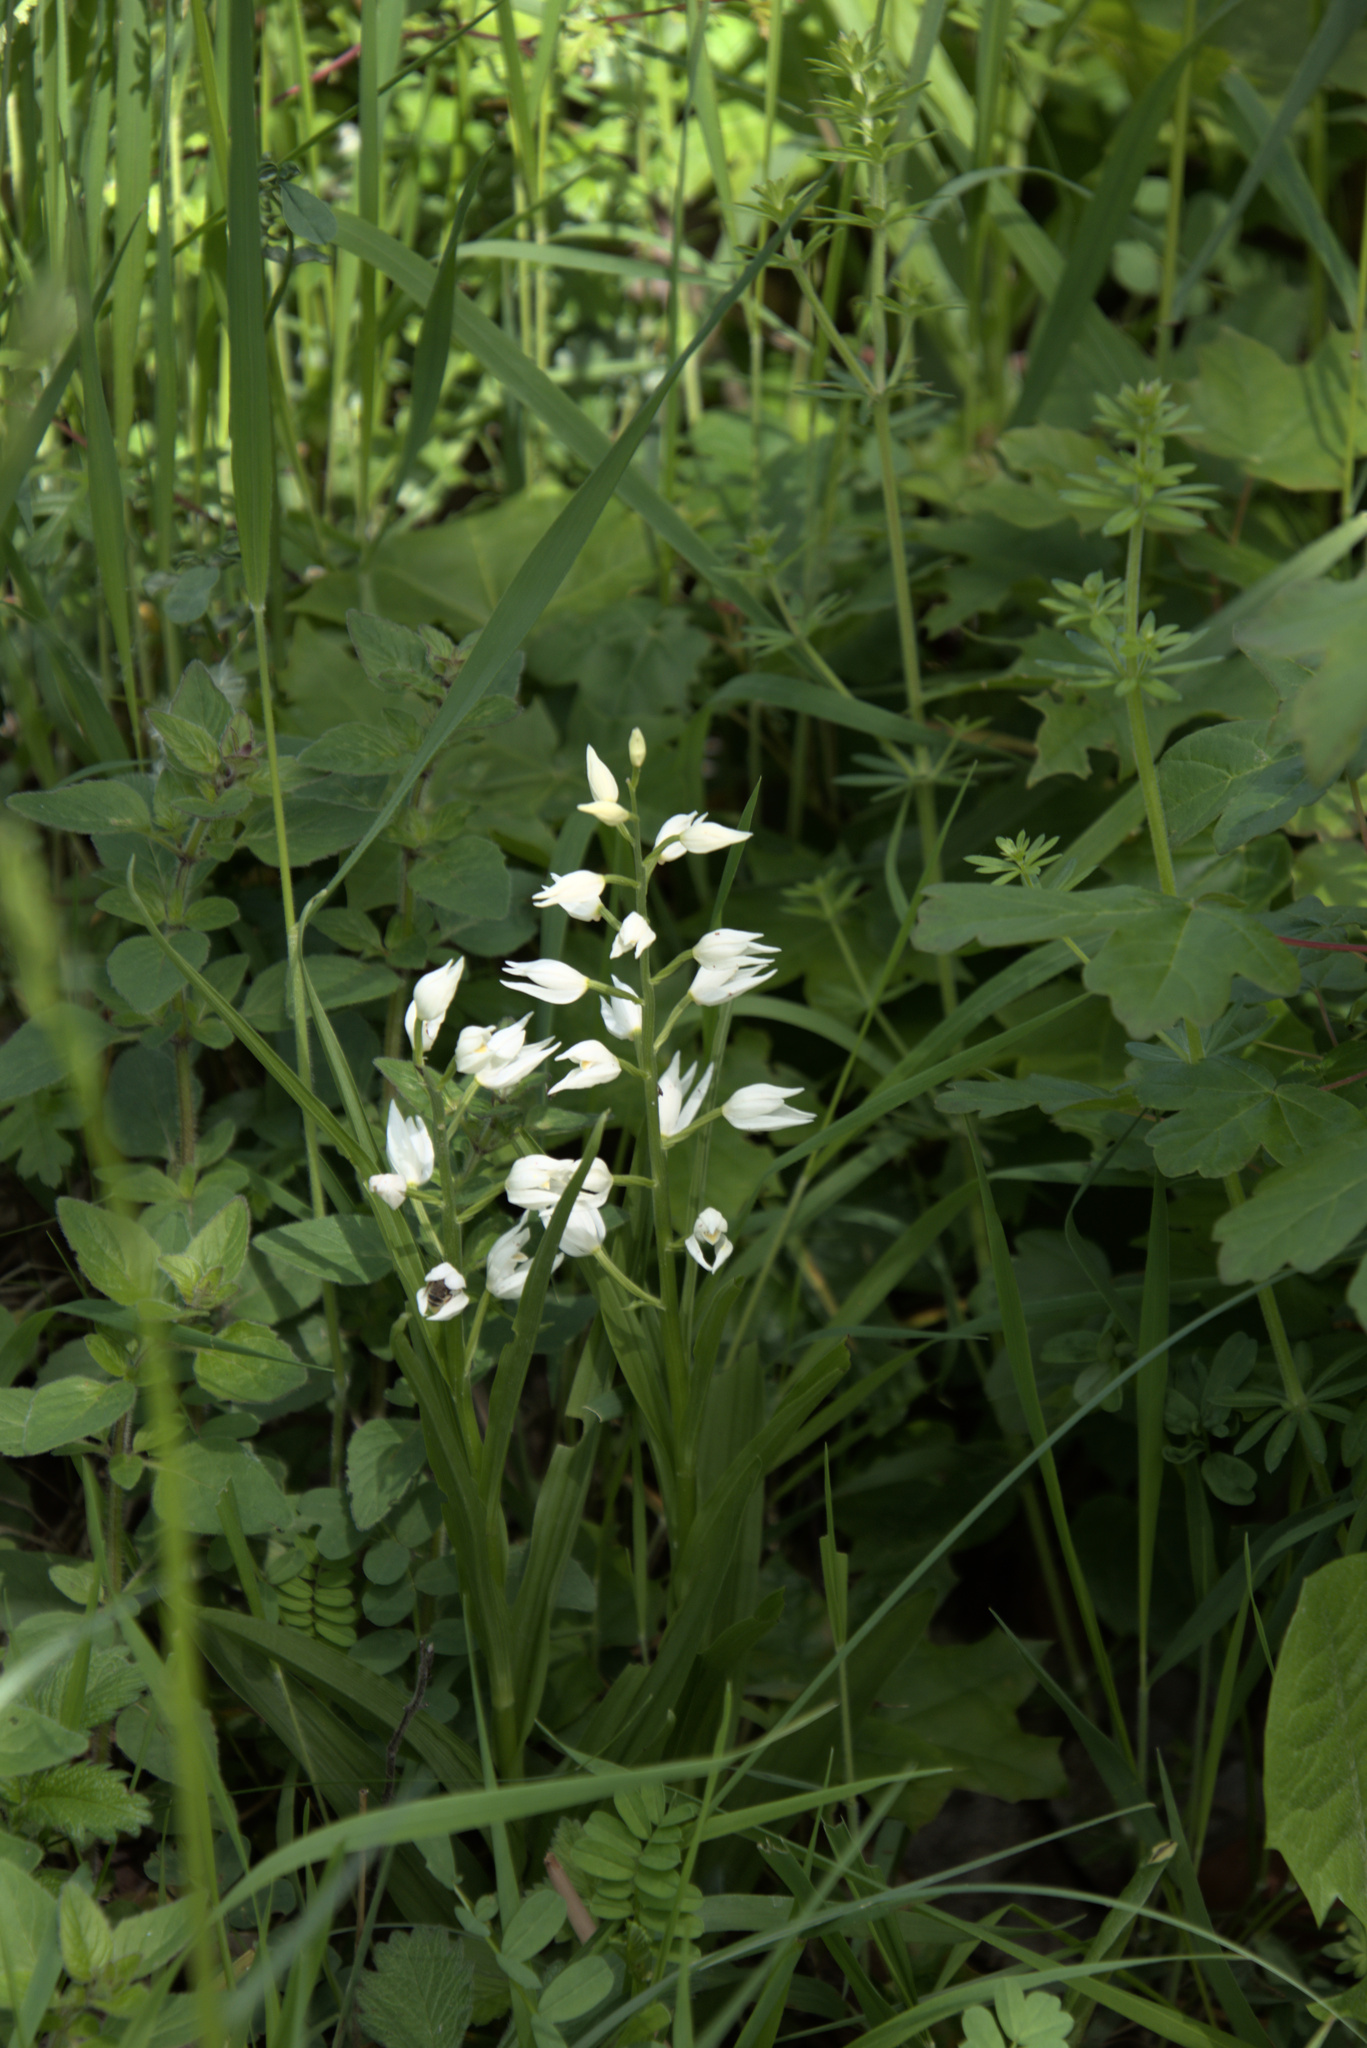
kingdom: Plantae
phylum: Tracheophyta
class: Liliopsida
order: Asparagales
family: Orchidaceae
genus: Cephalanthera
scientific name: Cephalanthera longifolia
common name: Narrow-leaved helleborine
